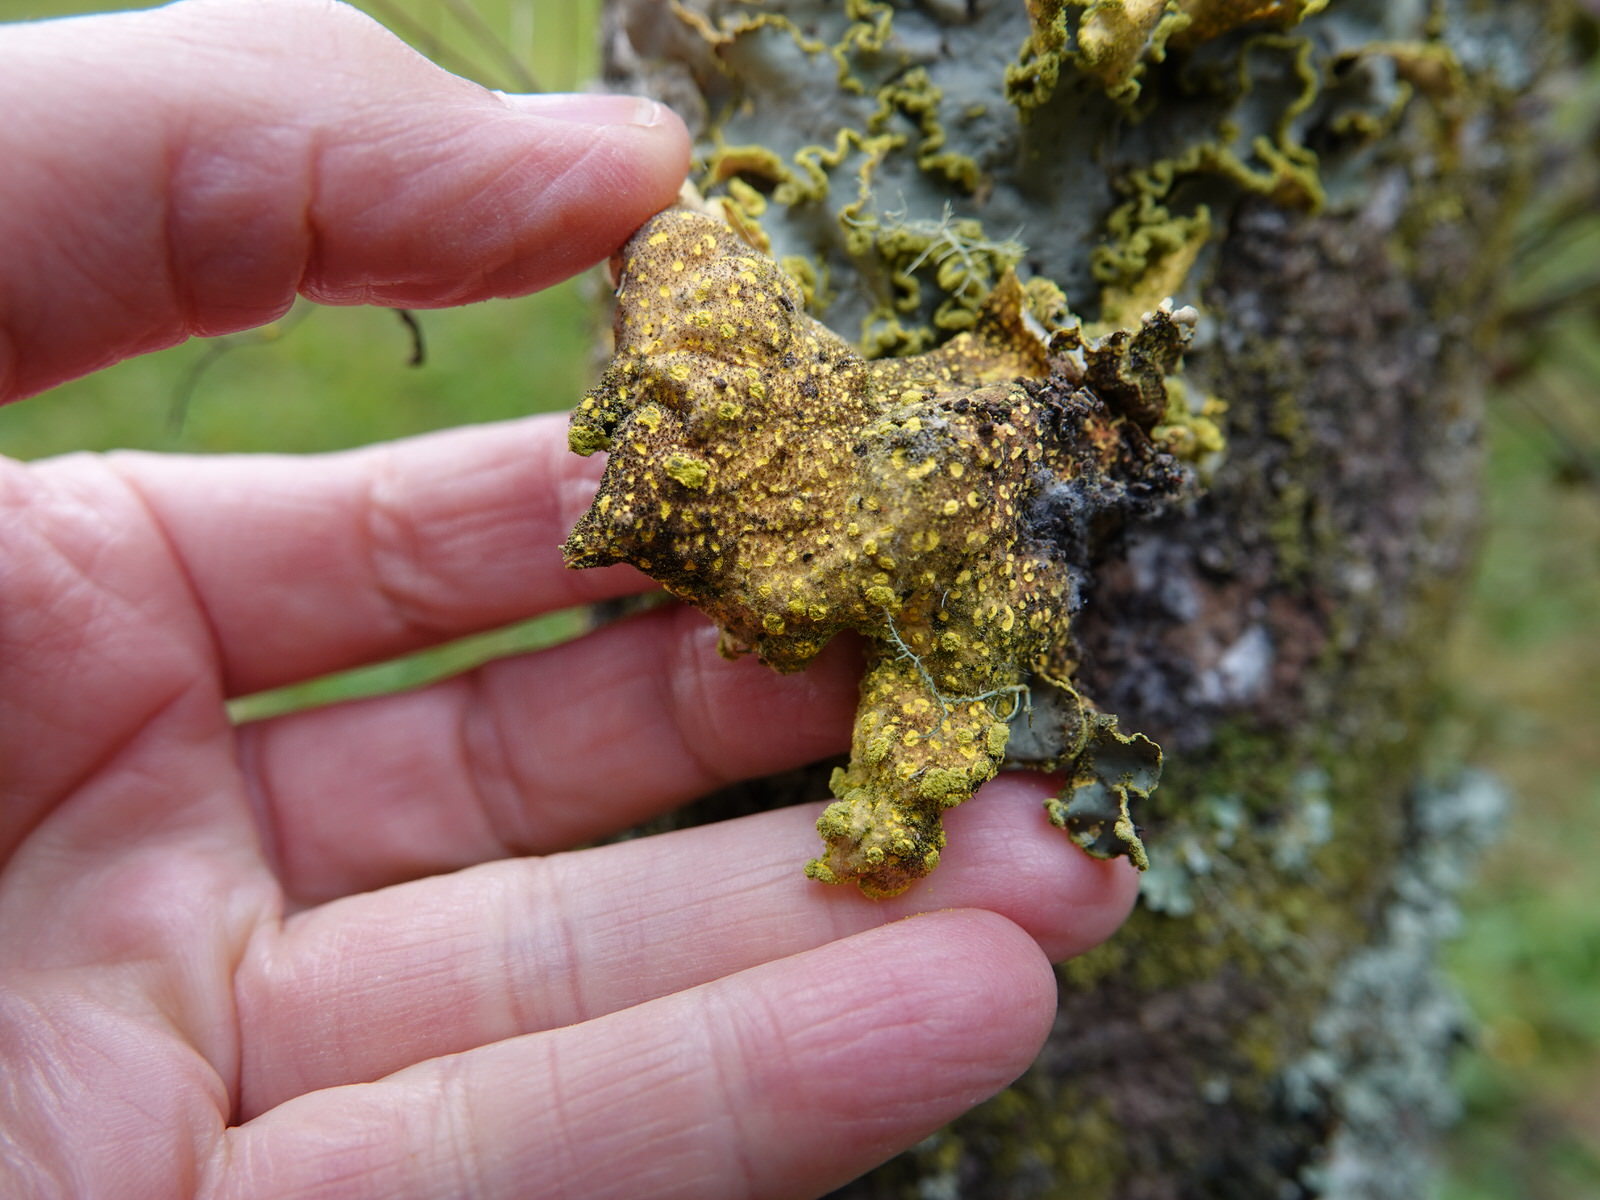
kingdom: Fungi
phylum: Ascomycota
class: Lecanoromycetes
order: Peltigerales
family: Lobariaceae
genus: Pseudocyphellaria
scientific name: Pseudocyphellaria aurata
